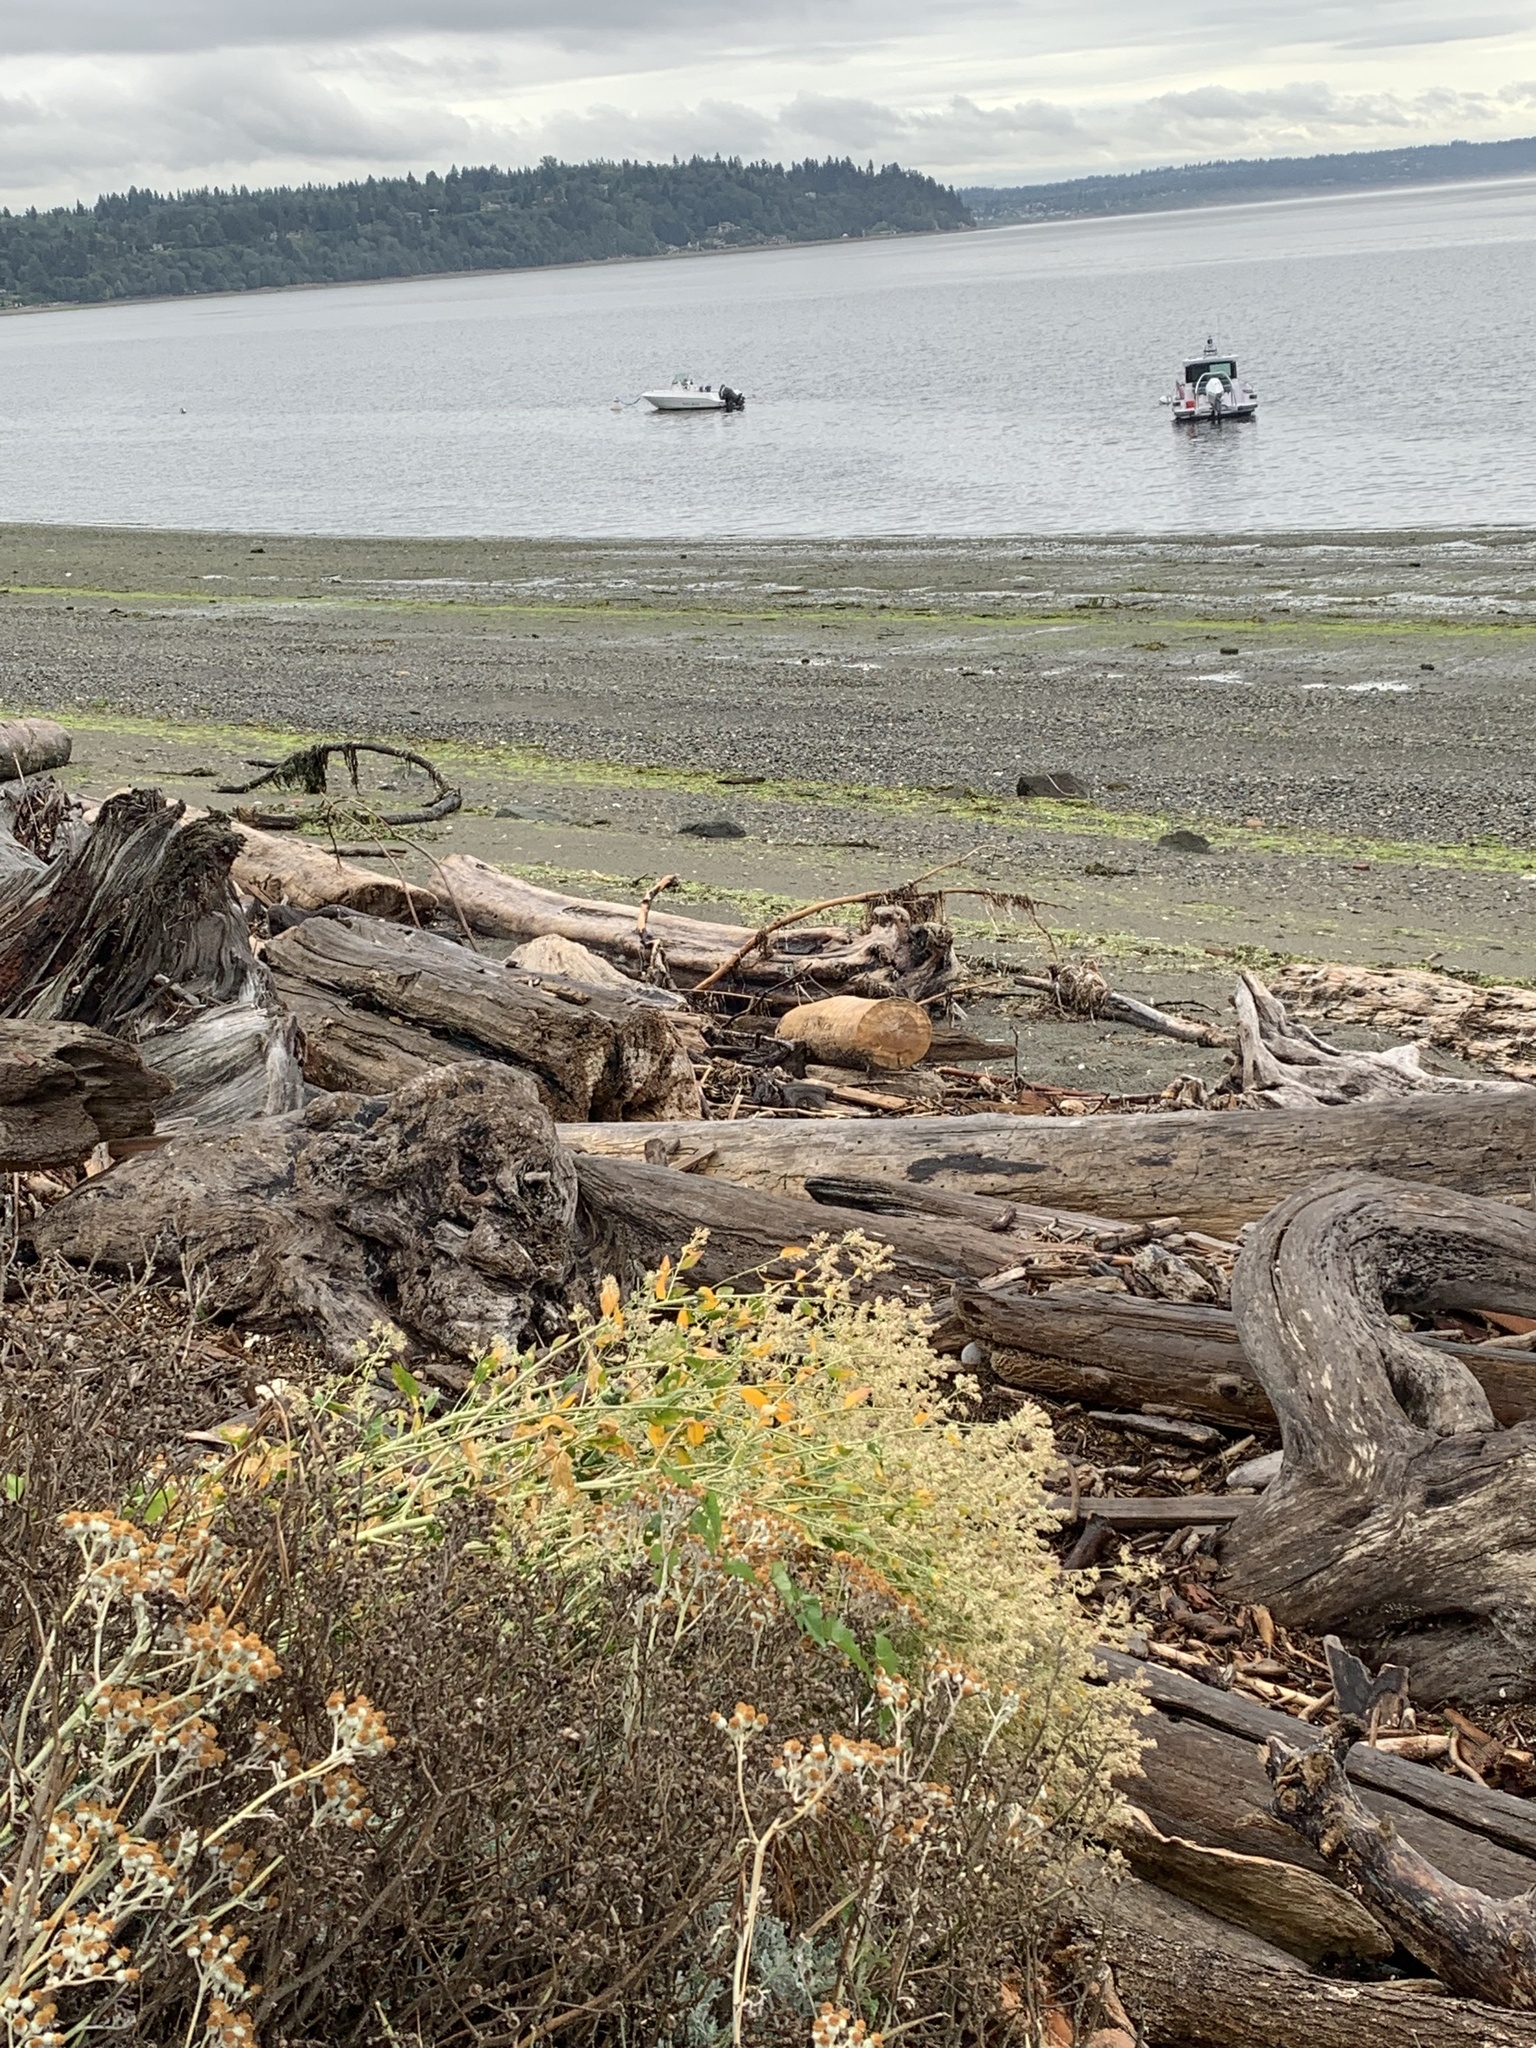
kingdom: Plantae
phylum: Tracheophyta
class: Magnoliopsida
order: Brassicales
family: Brassicaceae
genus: Lepidium
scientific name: Lepidium latifolium
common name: Dittander
